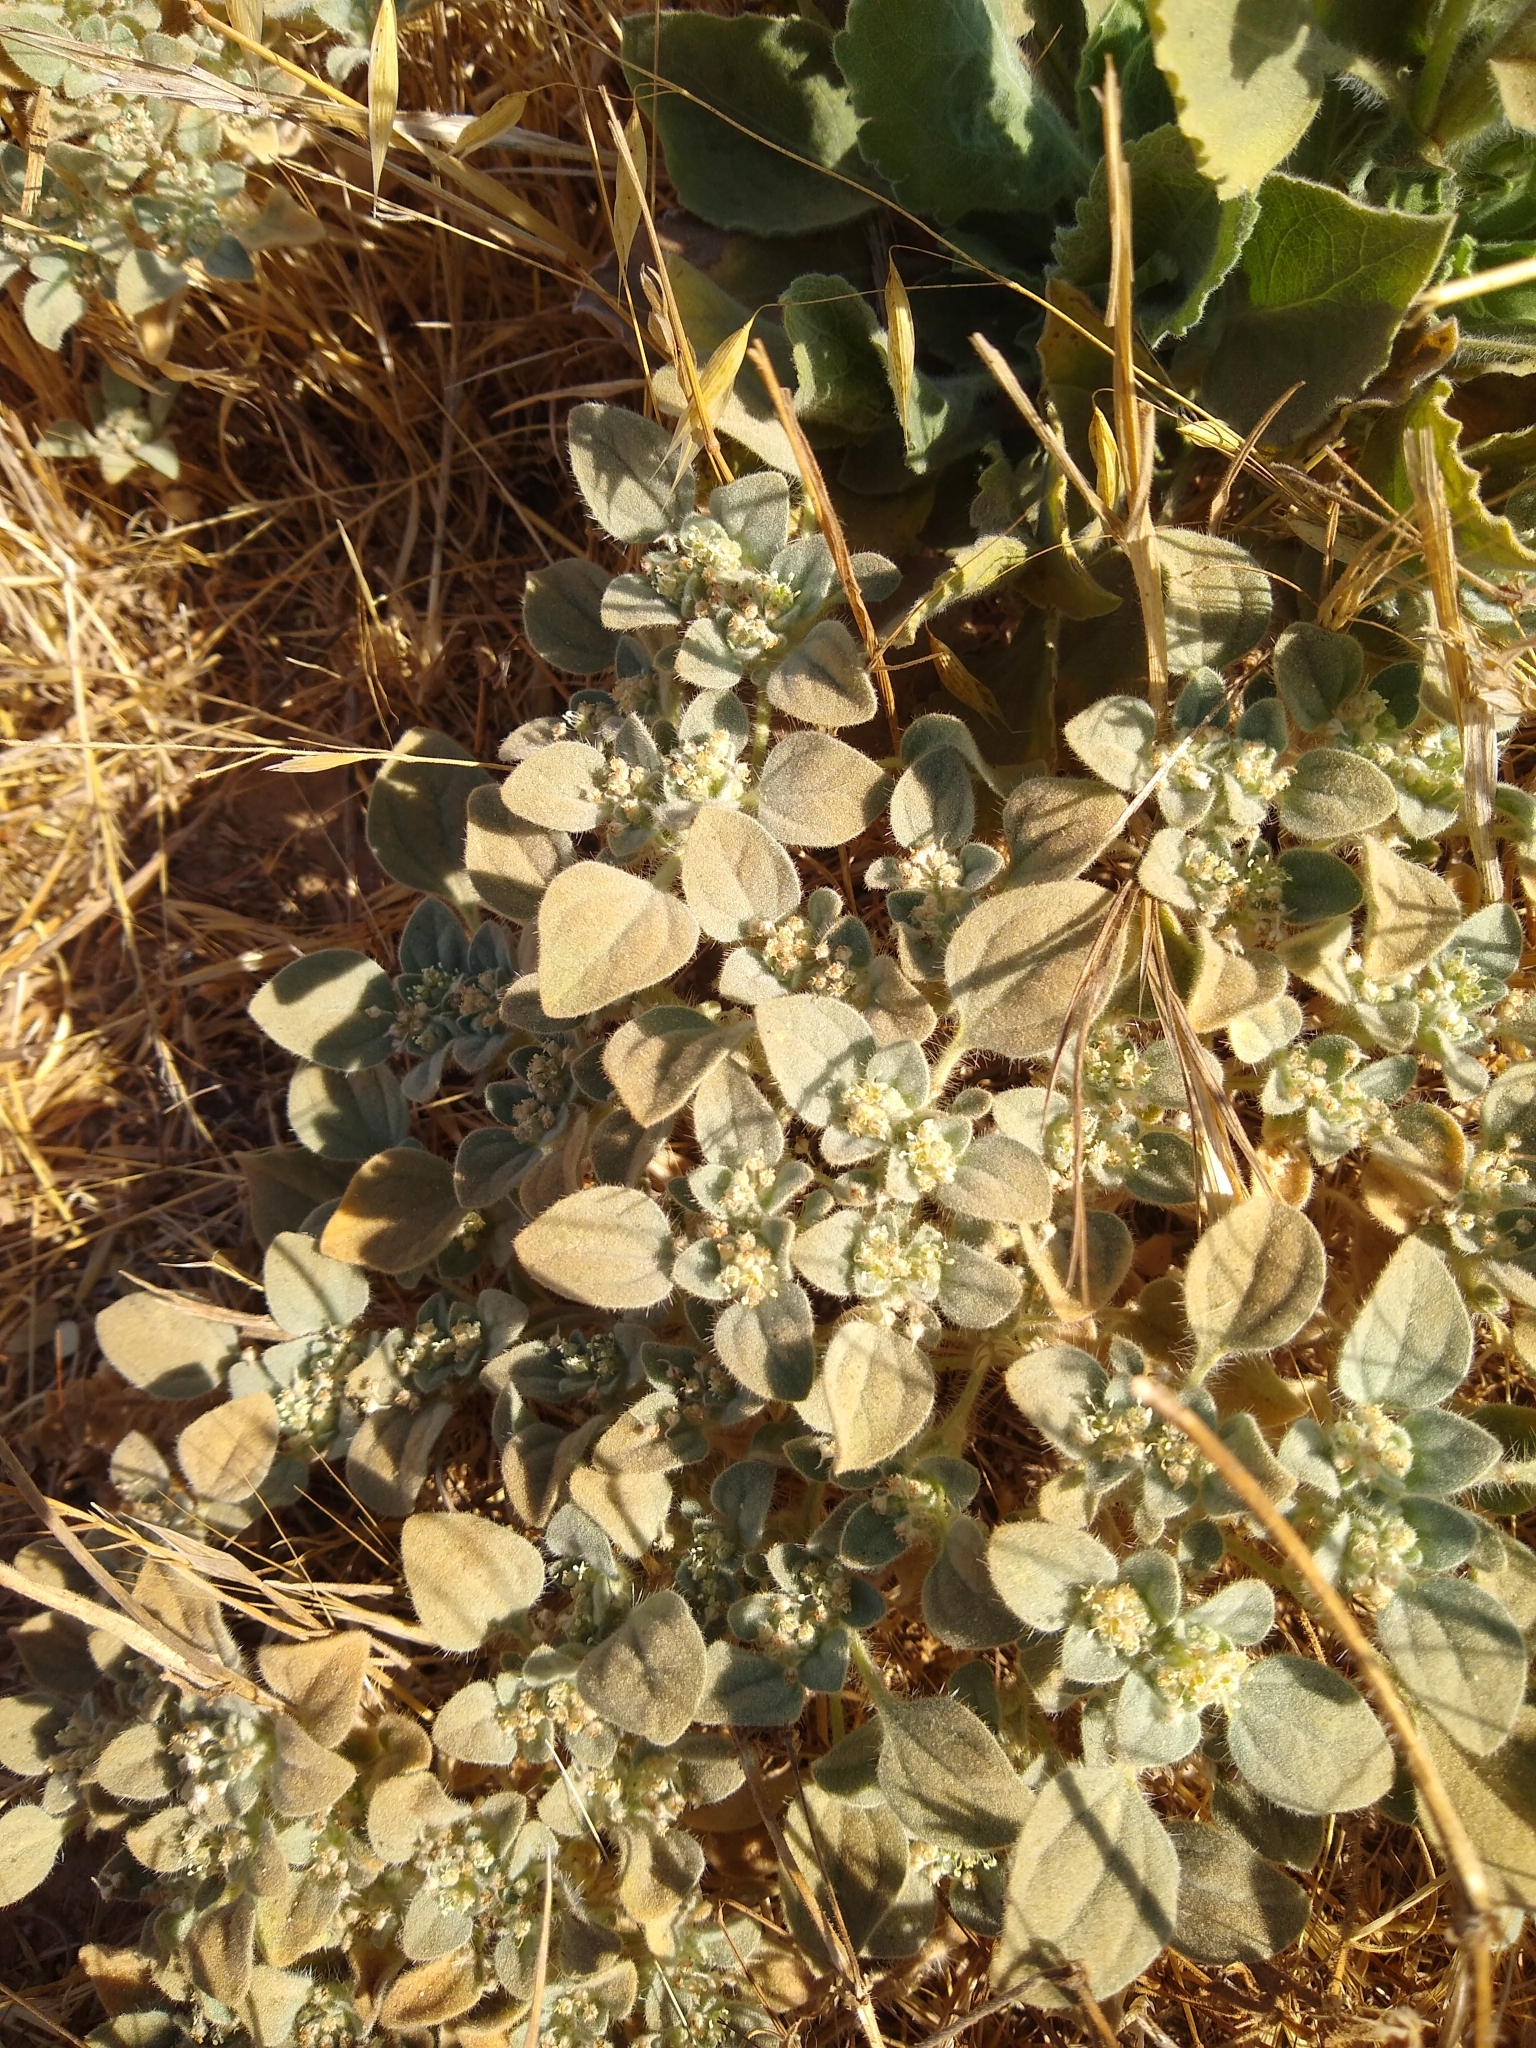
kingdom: Plantae
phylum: Tracheophyta
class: Magnoliopsida
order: Malpighiales
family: Euphorbiaceae
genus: Croton
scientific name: Croton setiger
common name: Dove weed
